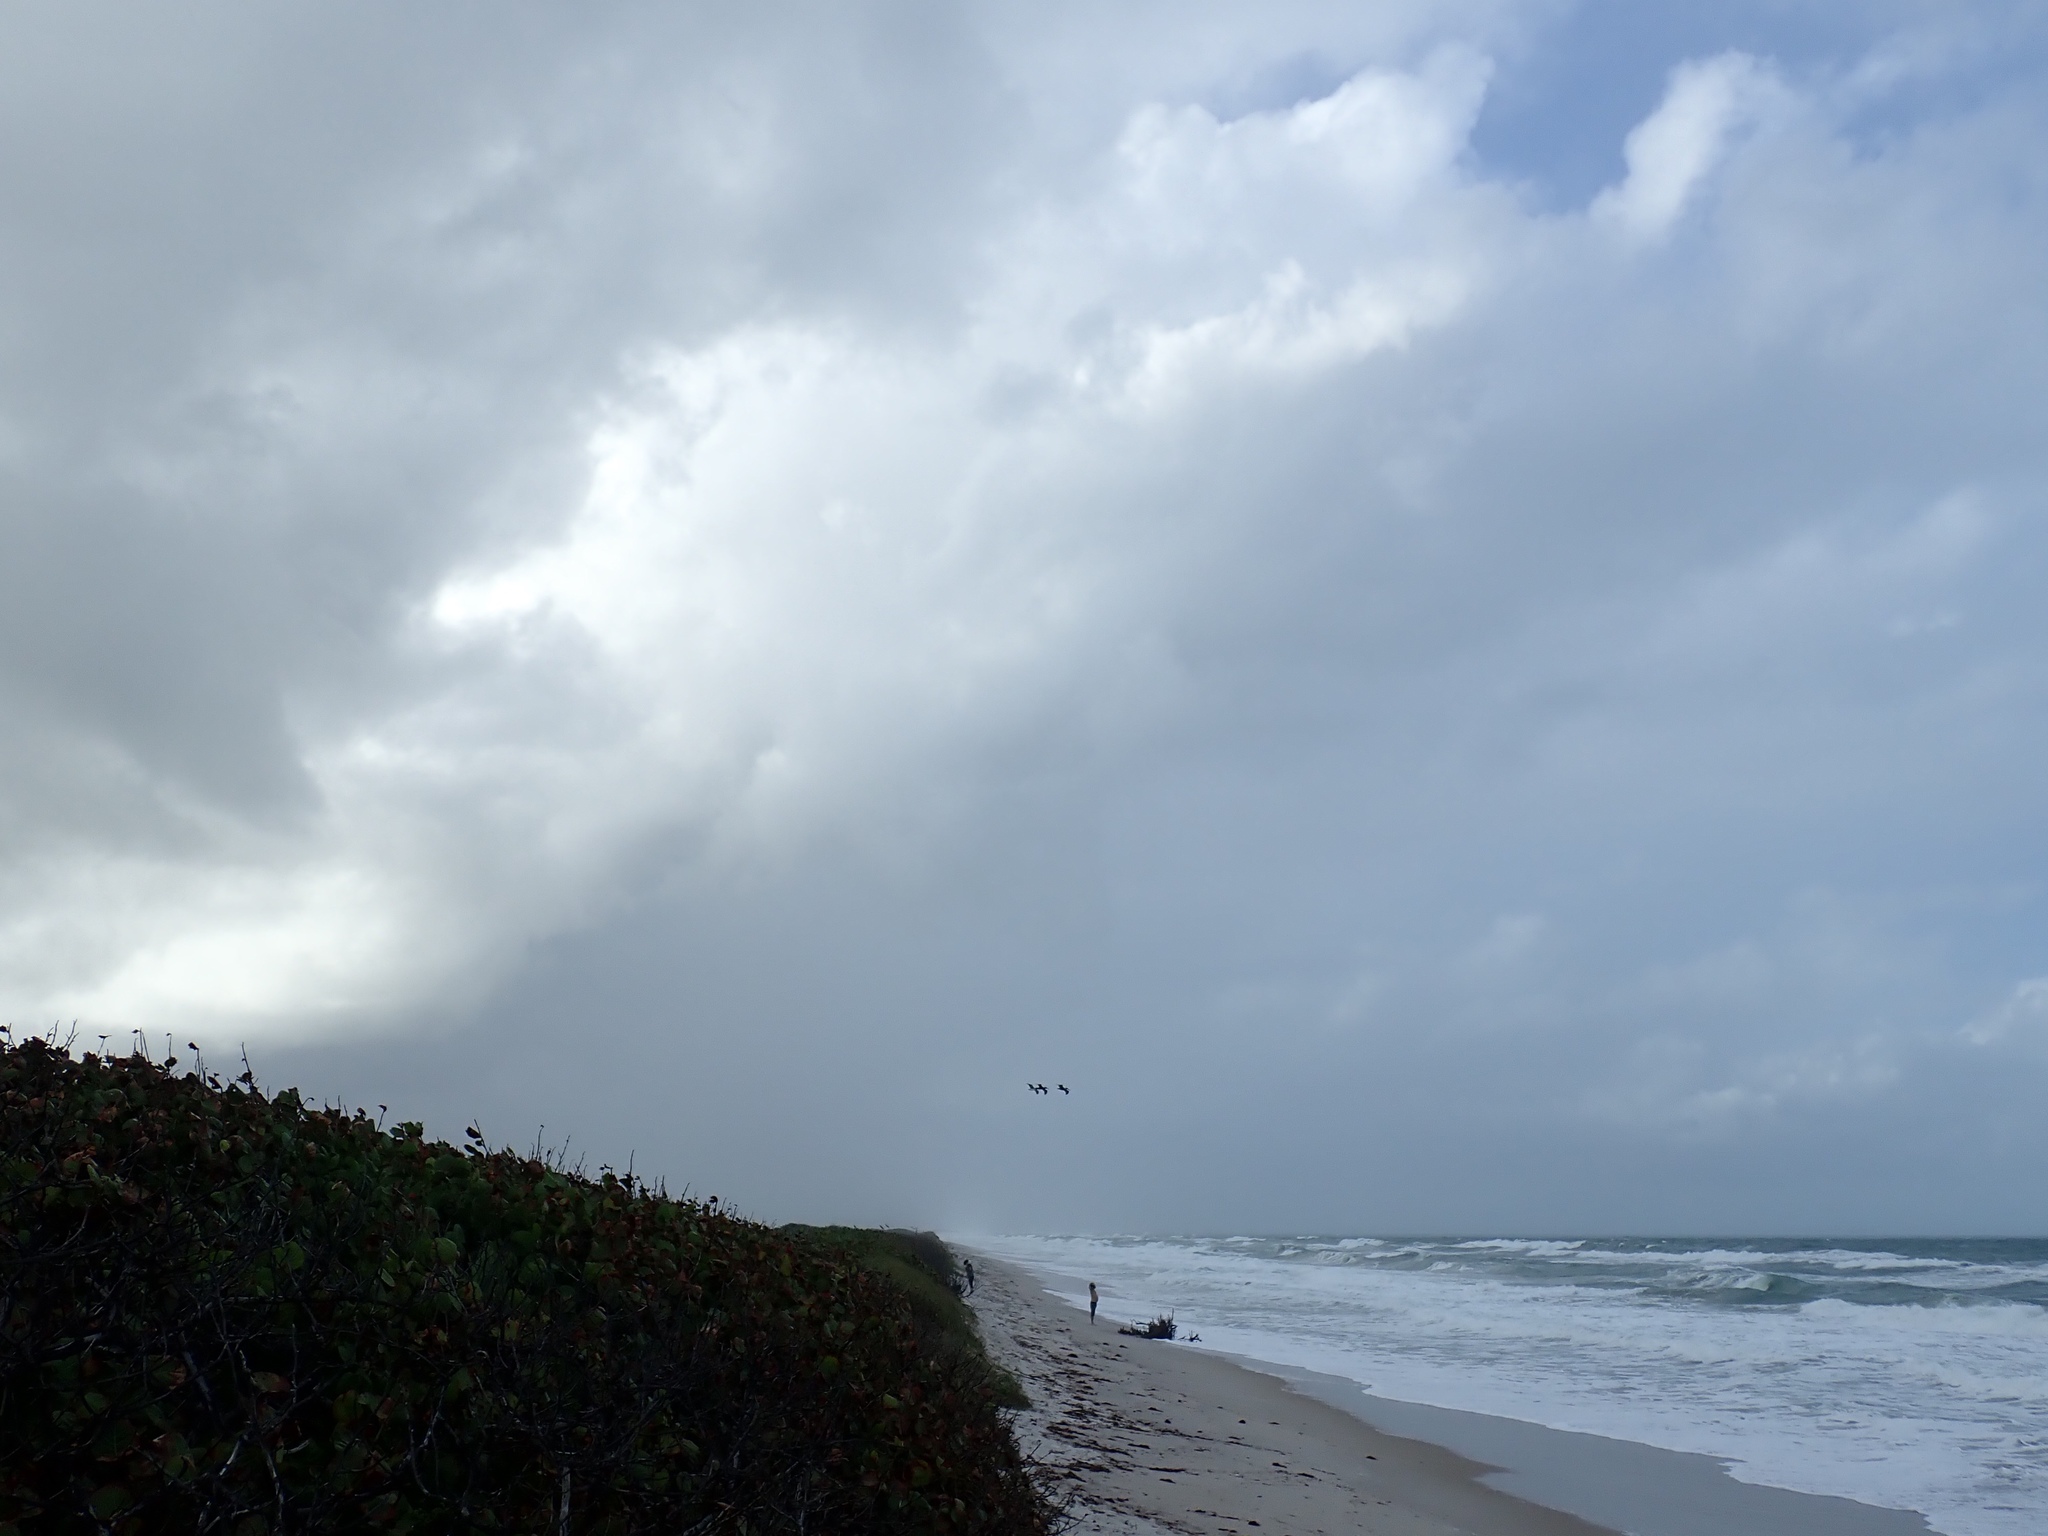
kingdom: Animalia
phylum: Chordata
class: Aves
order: Pelecaniformes
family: Pelecanidae
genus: Pelecanus
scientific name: Pelecanus occidentalis
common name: Brown pelican
